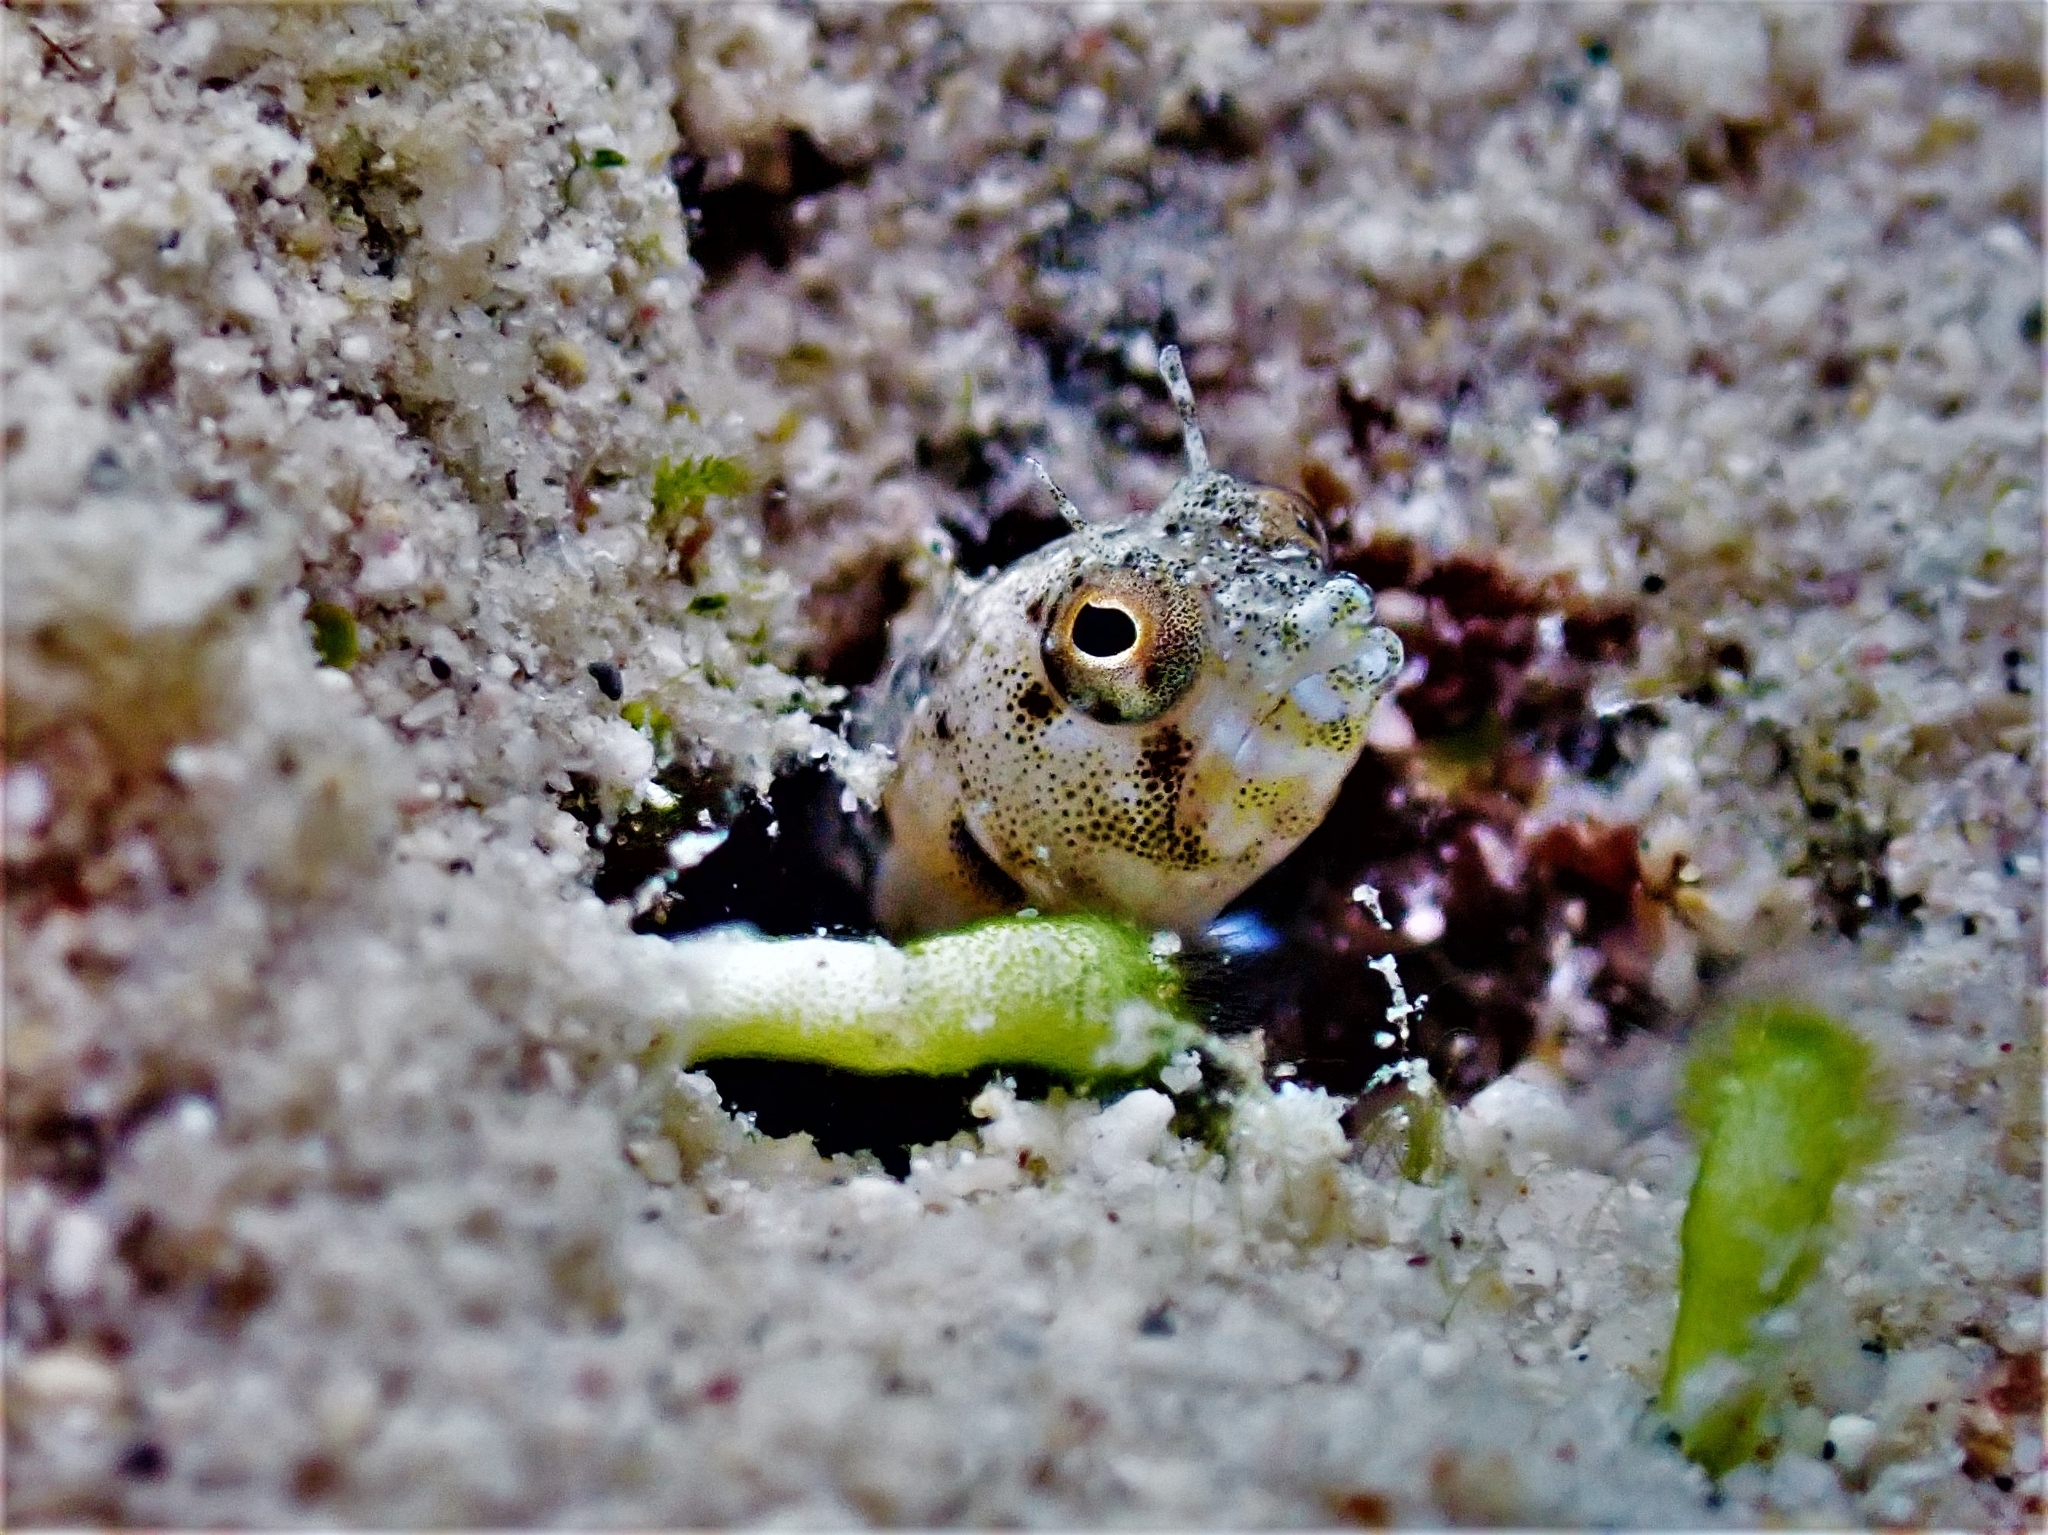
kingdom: Animalia
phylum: Chordata
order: Perciformes
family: Chaenopsidae
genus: Emblemaria
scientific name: Emblemaria pandionis
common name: Sailfin blenny
